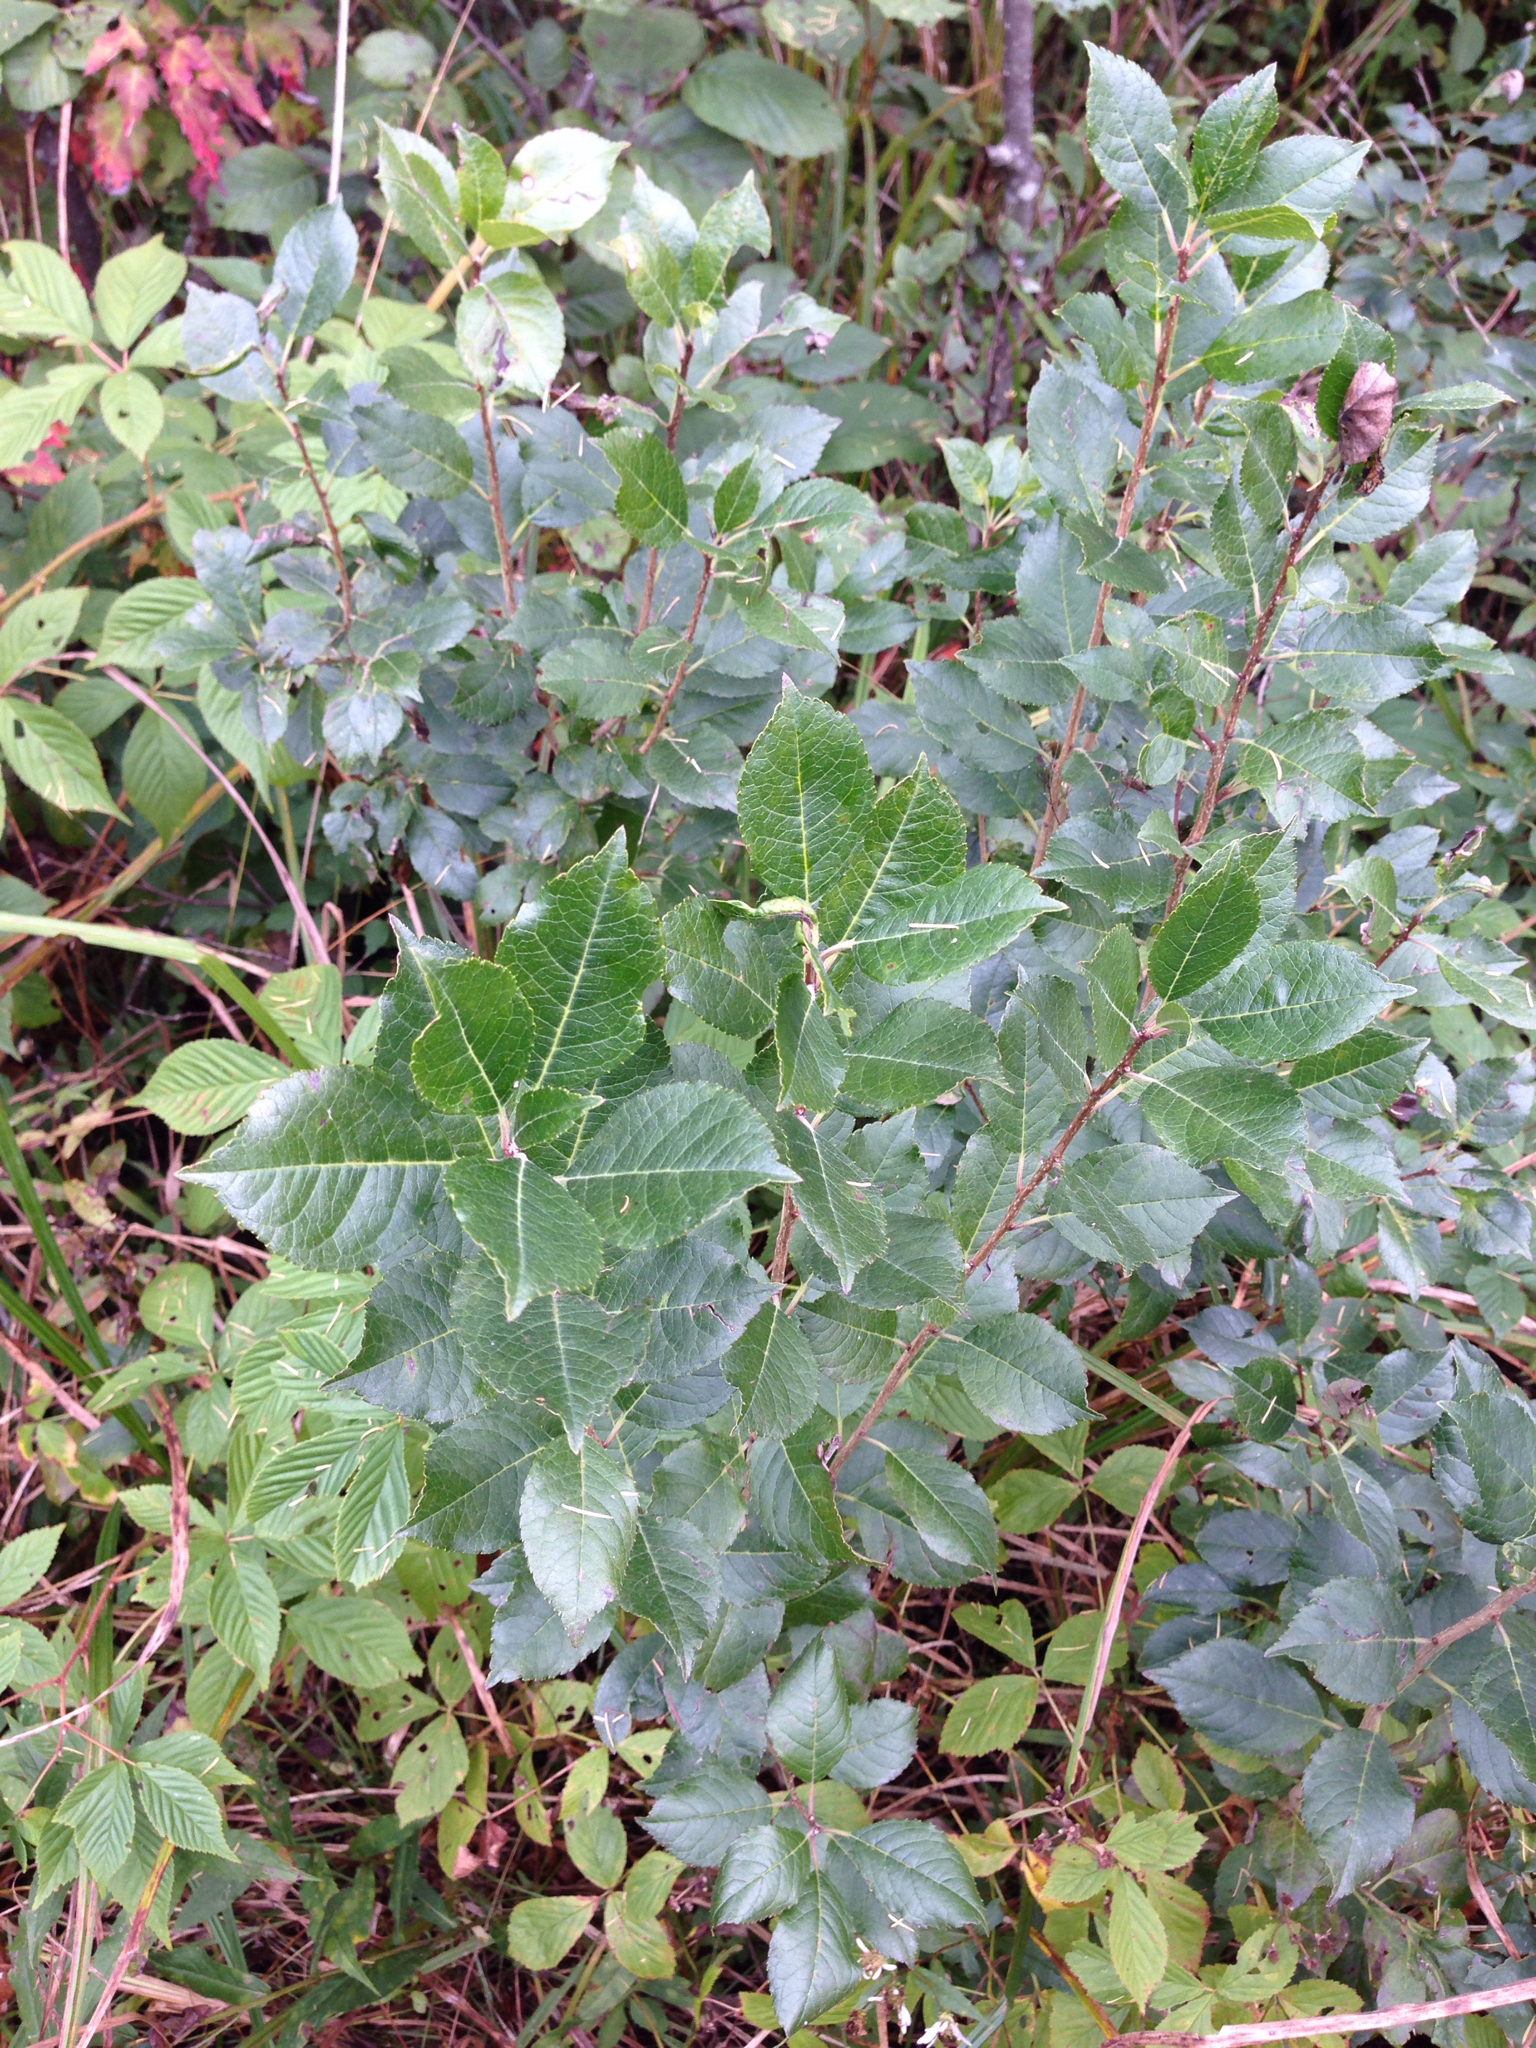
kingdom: Plantae
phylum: Tracheophyta
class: Magnoliopsida
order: Rosales
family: Rosaceae
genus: Prunus
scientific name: Prunus virginiana
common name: Chokecherry
